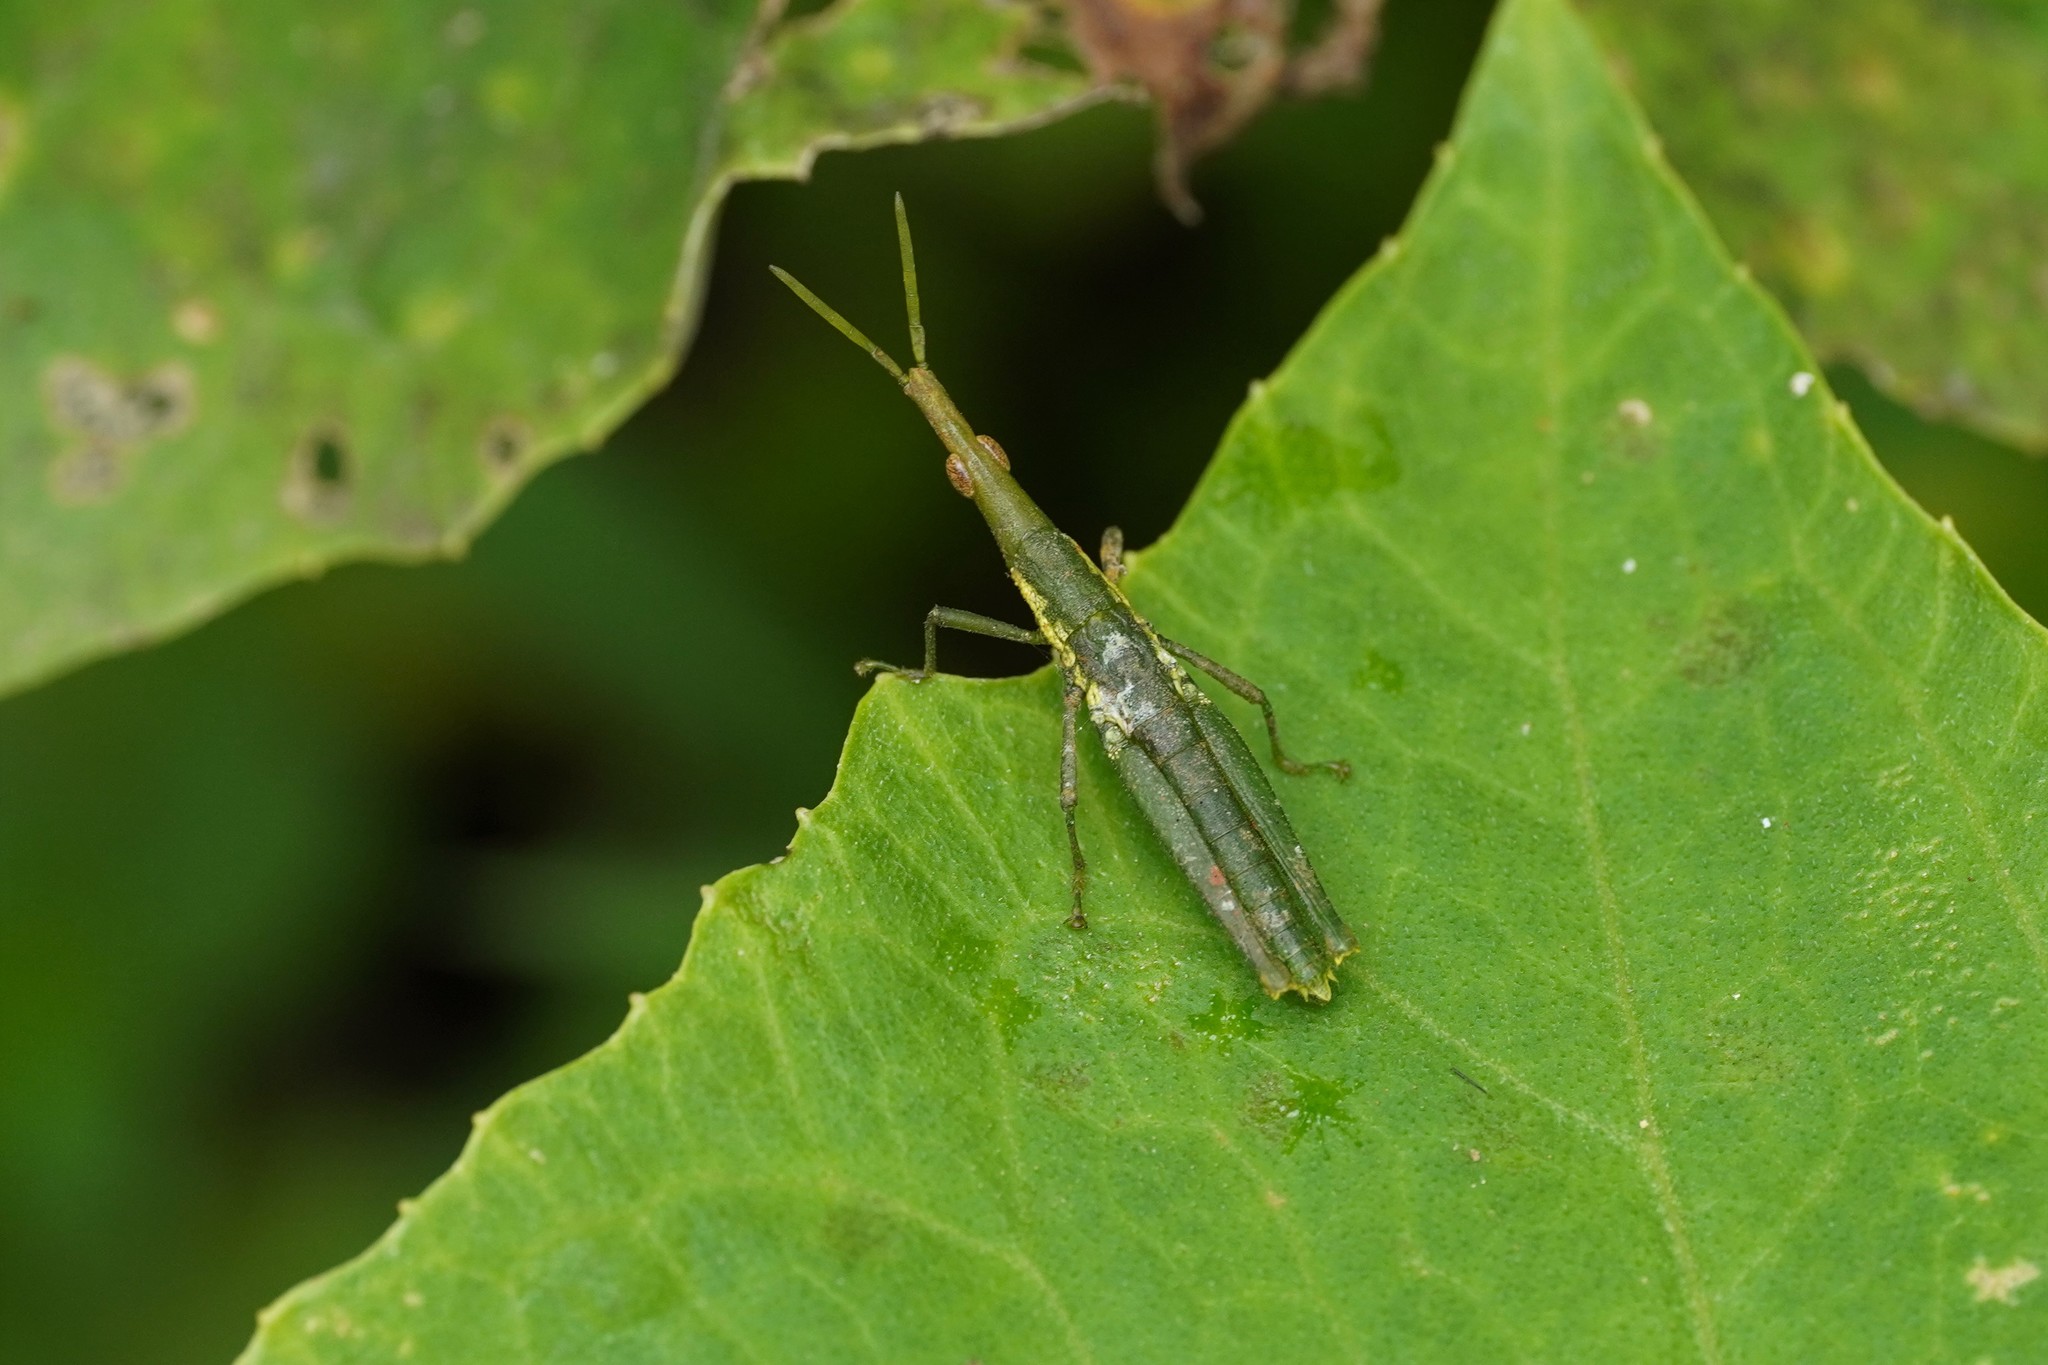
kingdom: Animalia
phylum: Arthropoda
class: Insecta
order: Orthoptera
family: Pyrgomorphidae
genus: Omura
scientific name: Omura congrua
